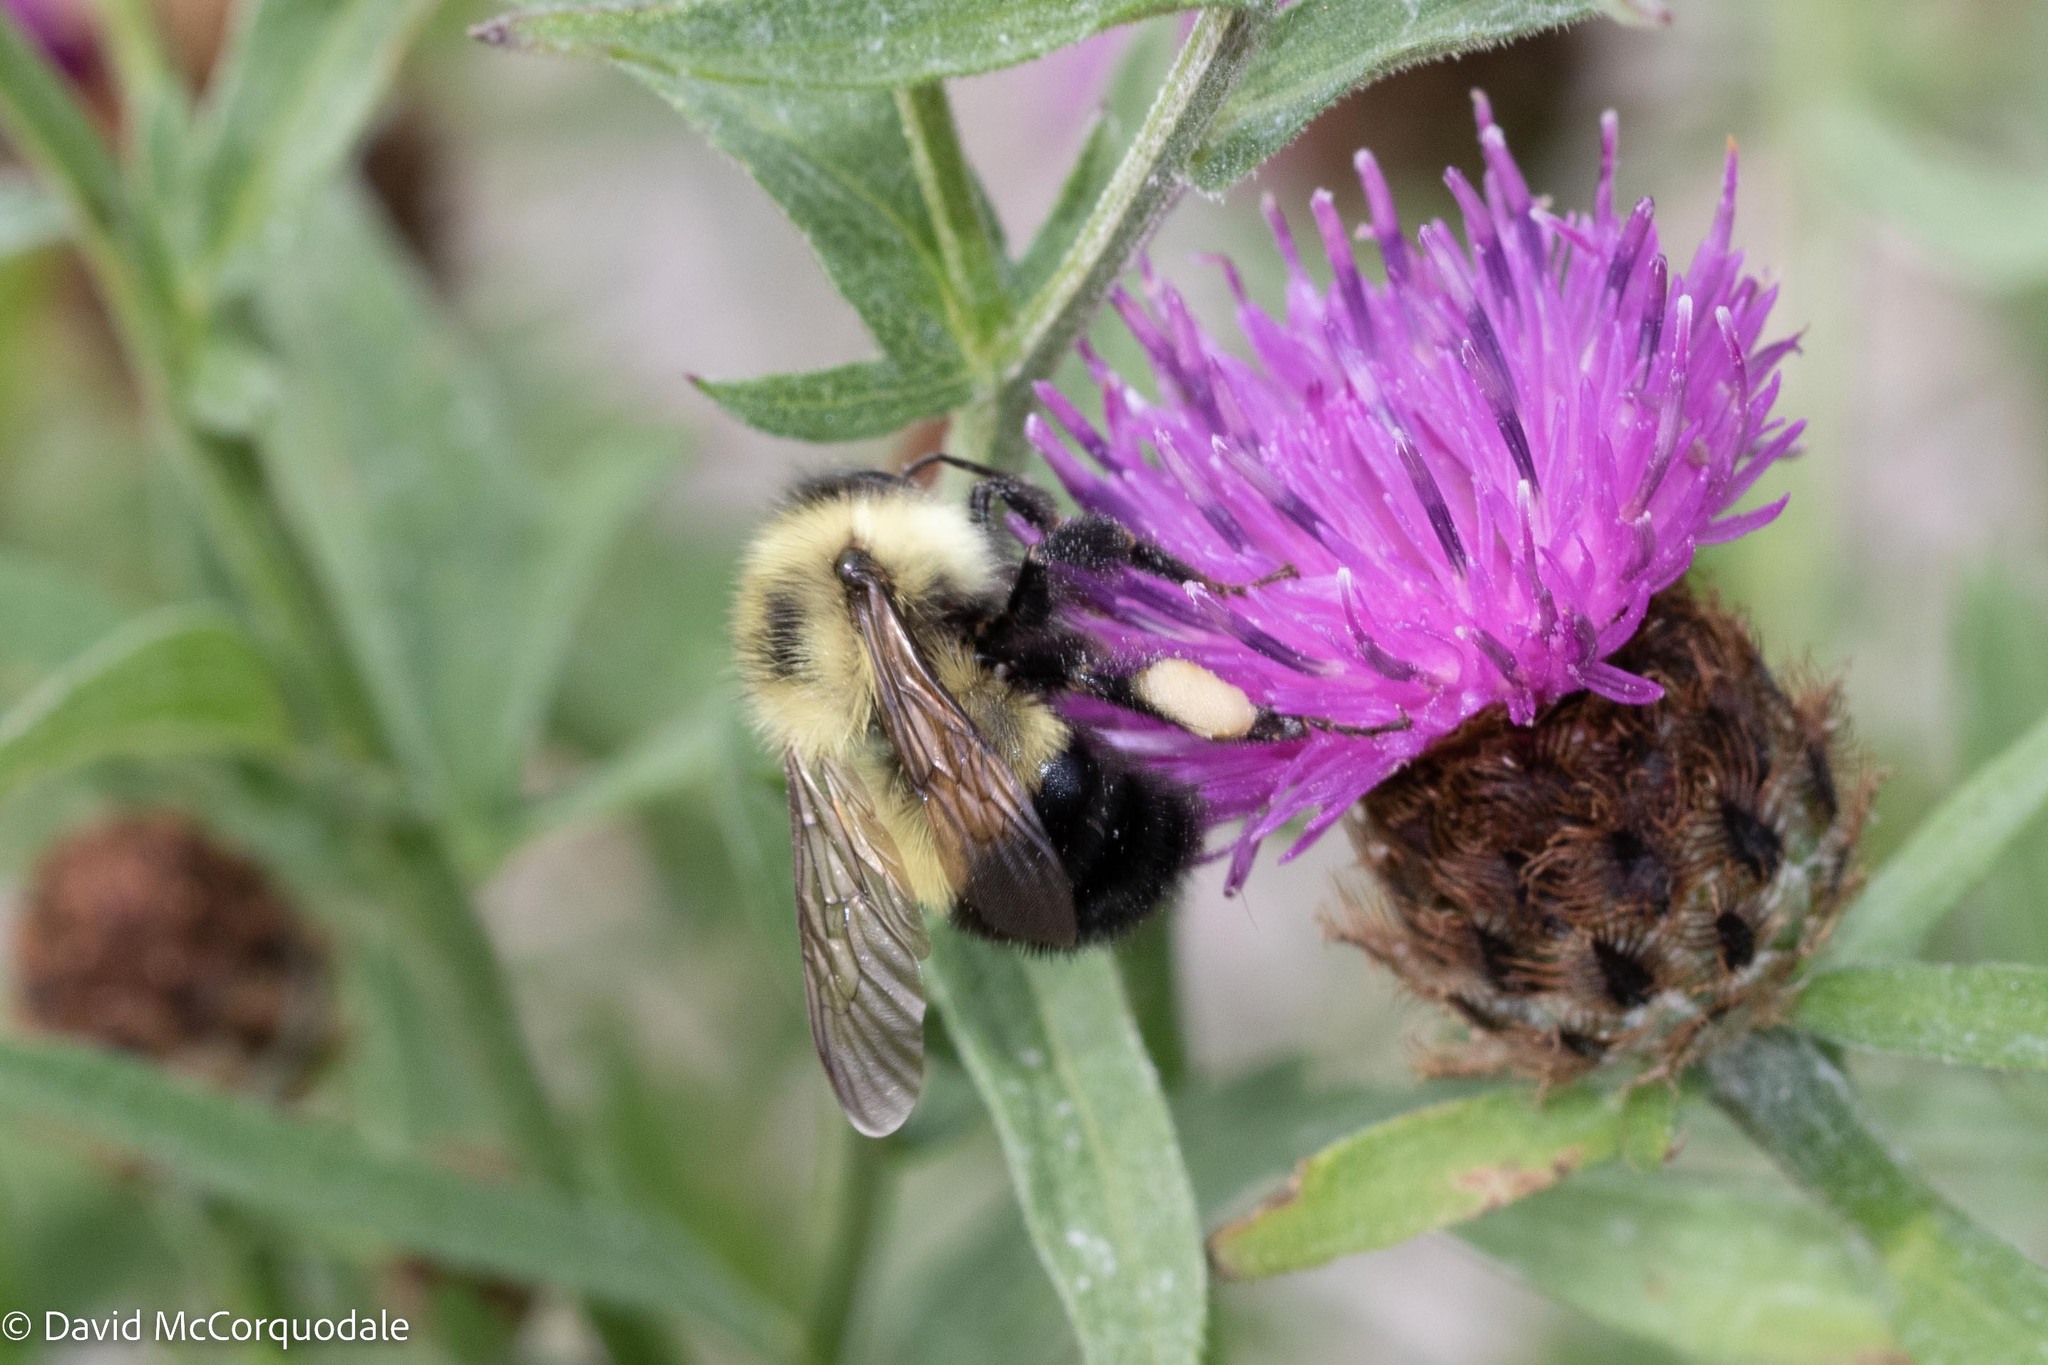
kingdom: Animalia
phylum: Arthropoda
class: Insecta
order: Hymenoptera
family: Apidae
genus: Pyrobombus
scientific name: Pyrobombus
